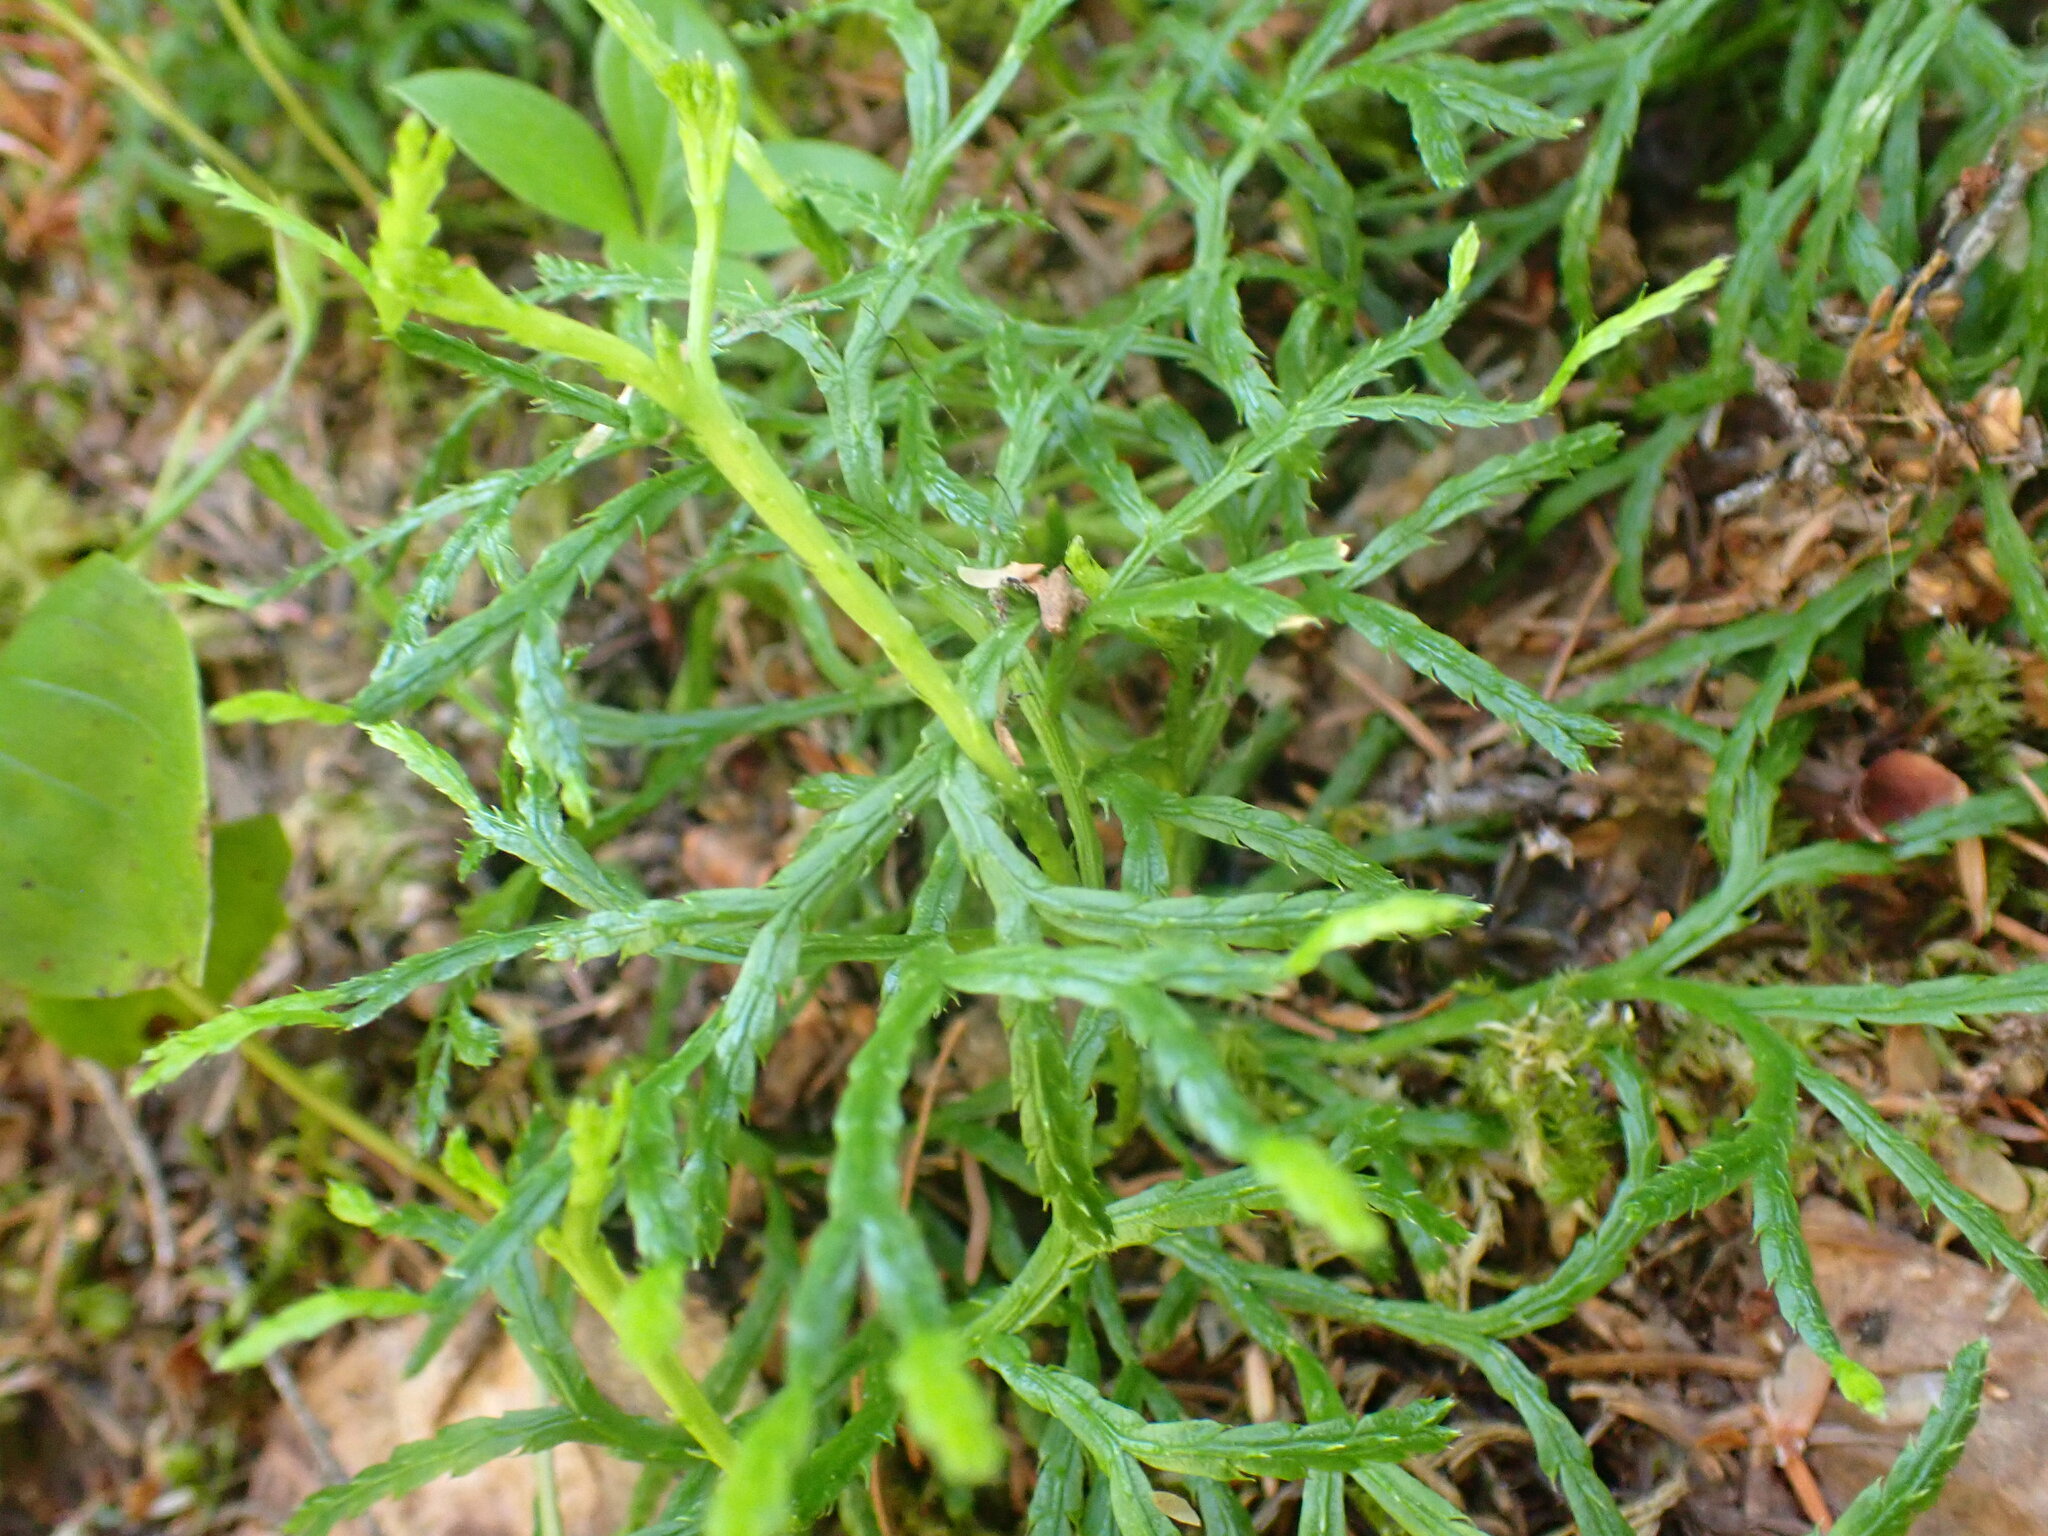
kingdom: Plantae
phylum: Tracheophyta
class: Lycopodiopsida
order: Lycopodiales
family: Lycopodiaceae
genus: Diphasiastrum
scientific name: Diphasiastrum complanatum
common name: Northern running-pine
